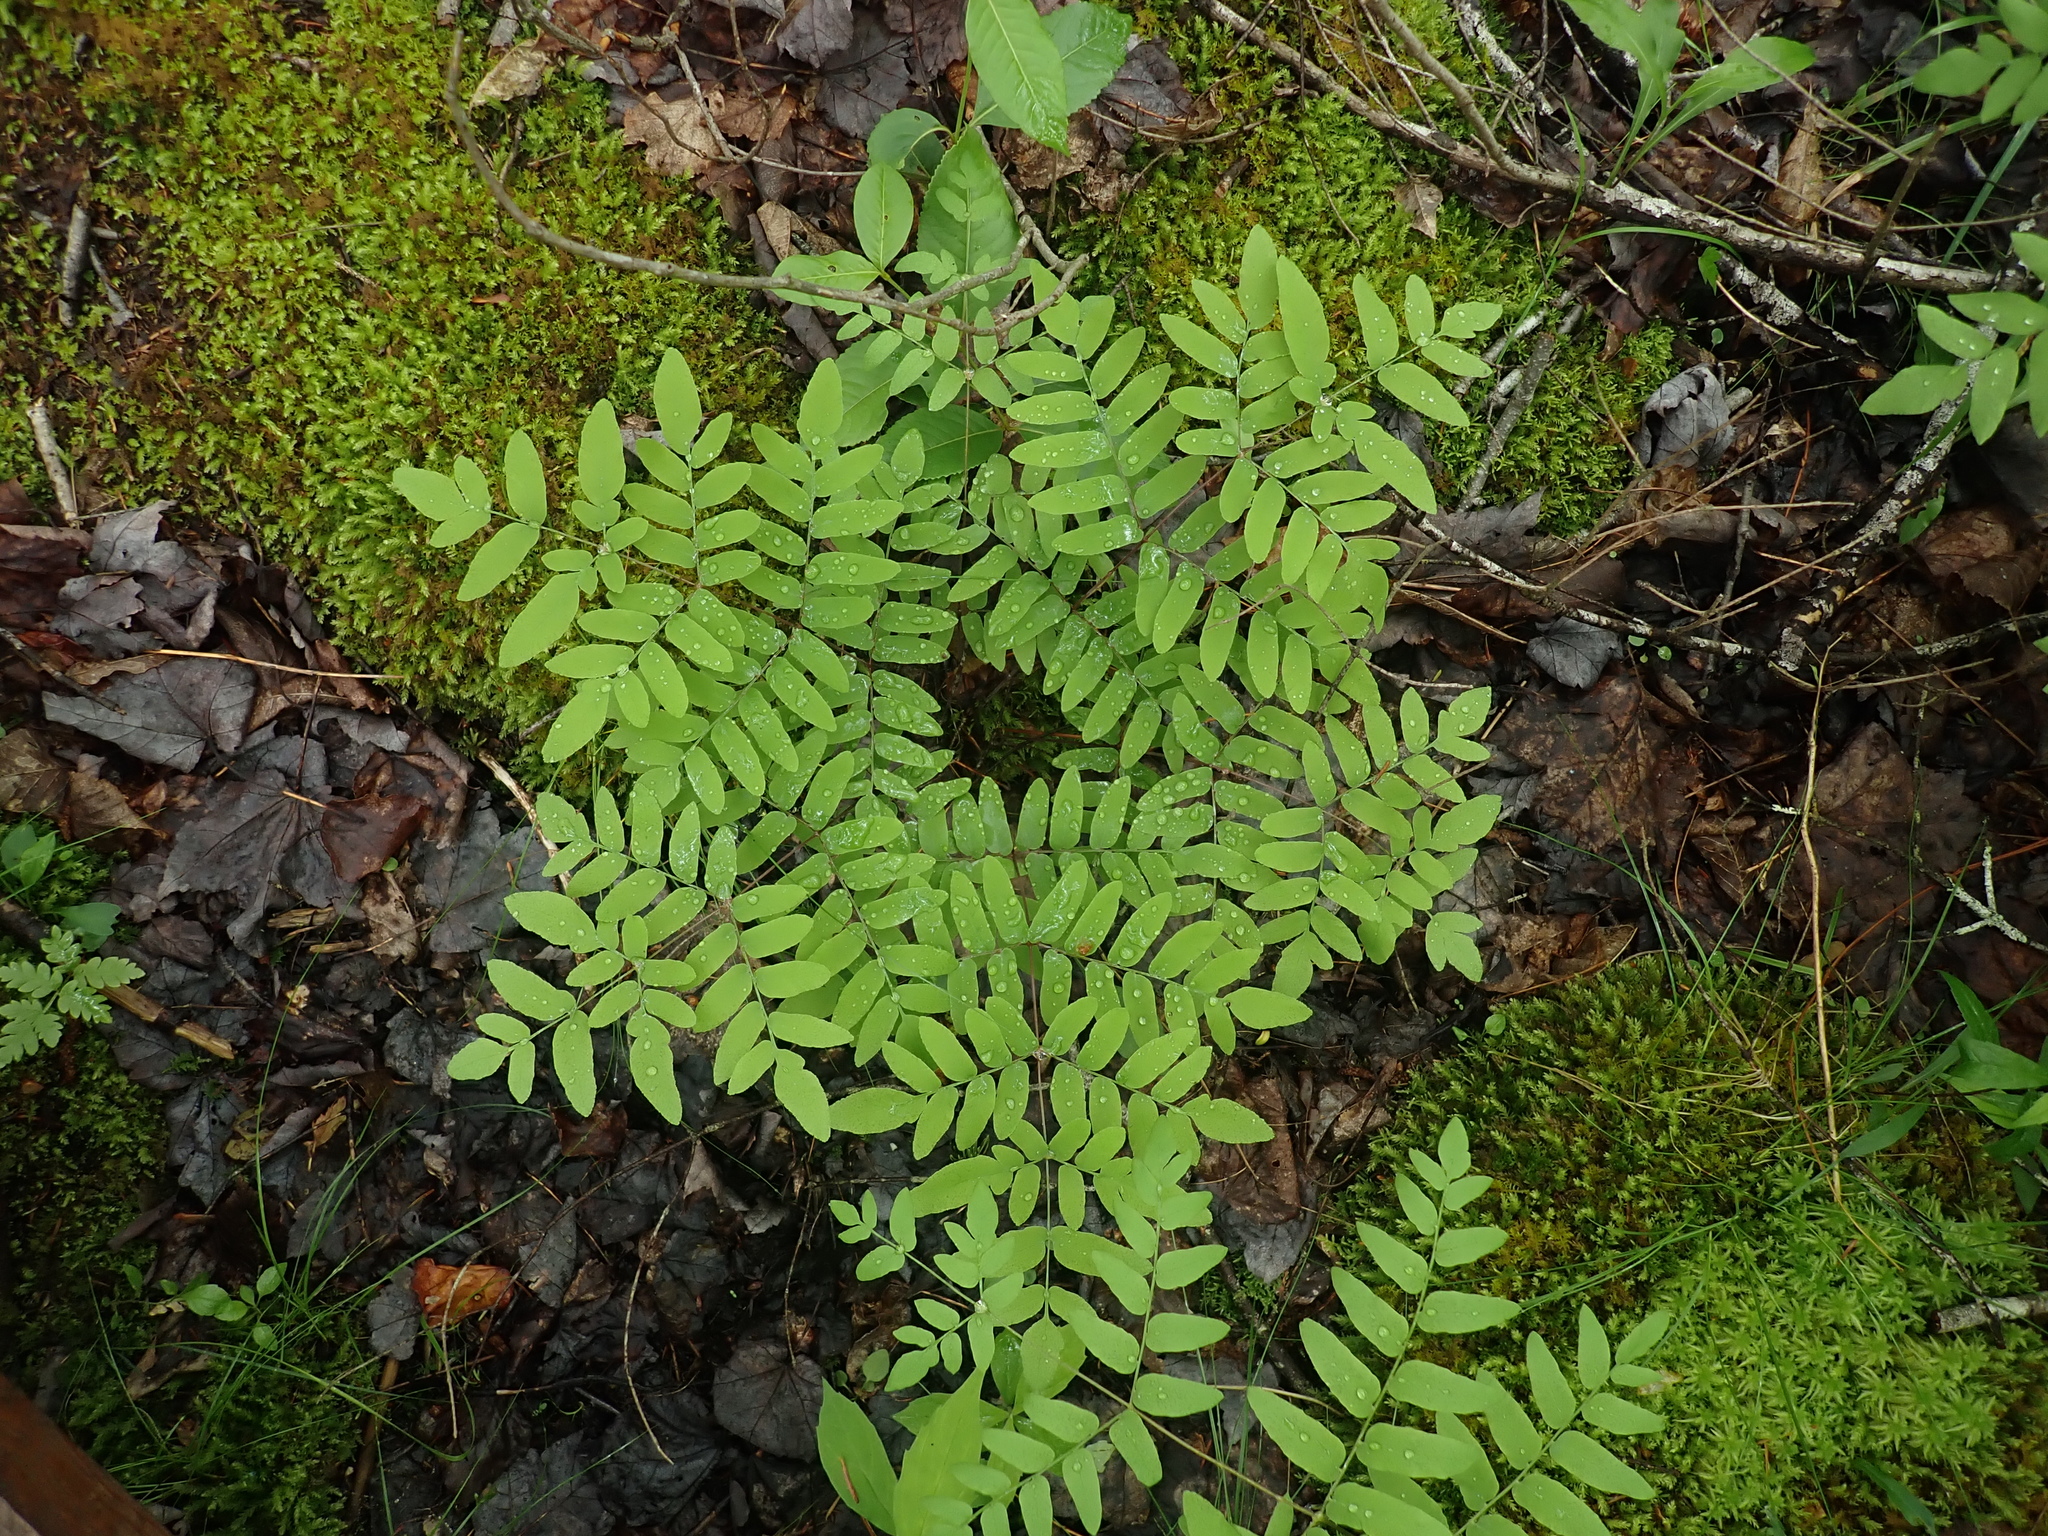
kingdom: Plantae
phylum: Tracheophyta
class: Polypodiopsida
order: Osmundales
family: Osmundaceae
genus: Osmunda
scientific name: Osmunda spectabilis
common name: American royal fern
